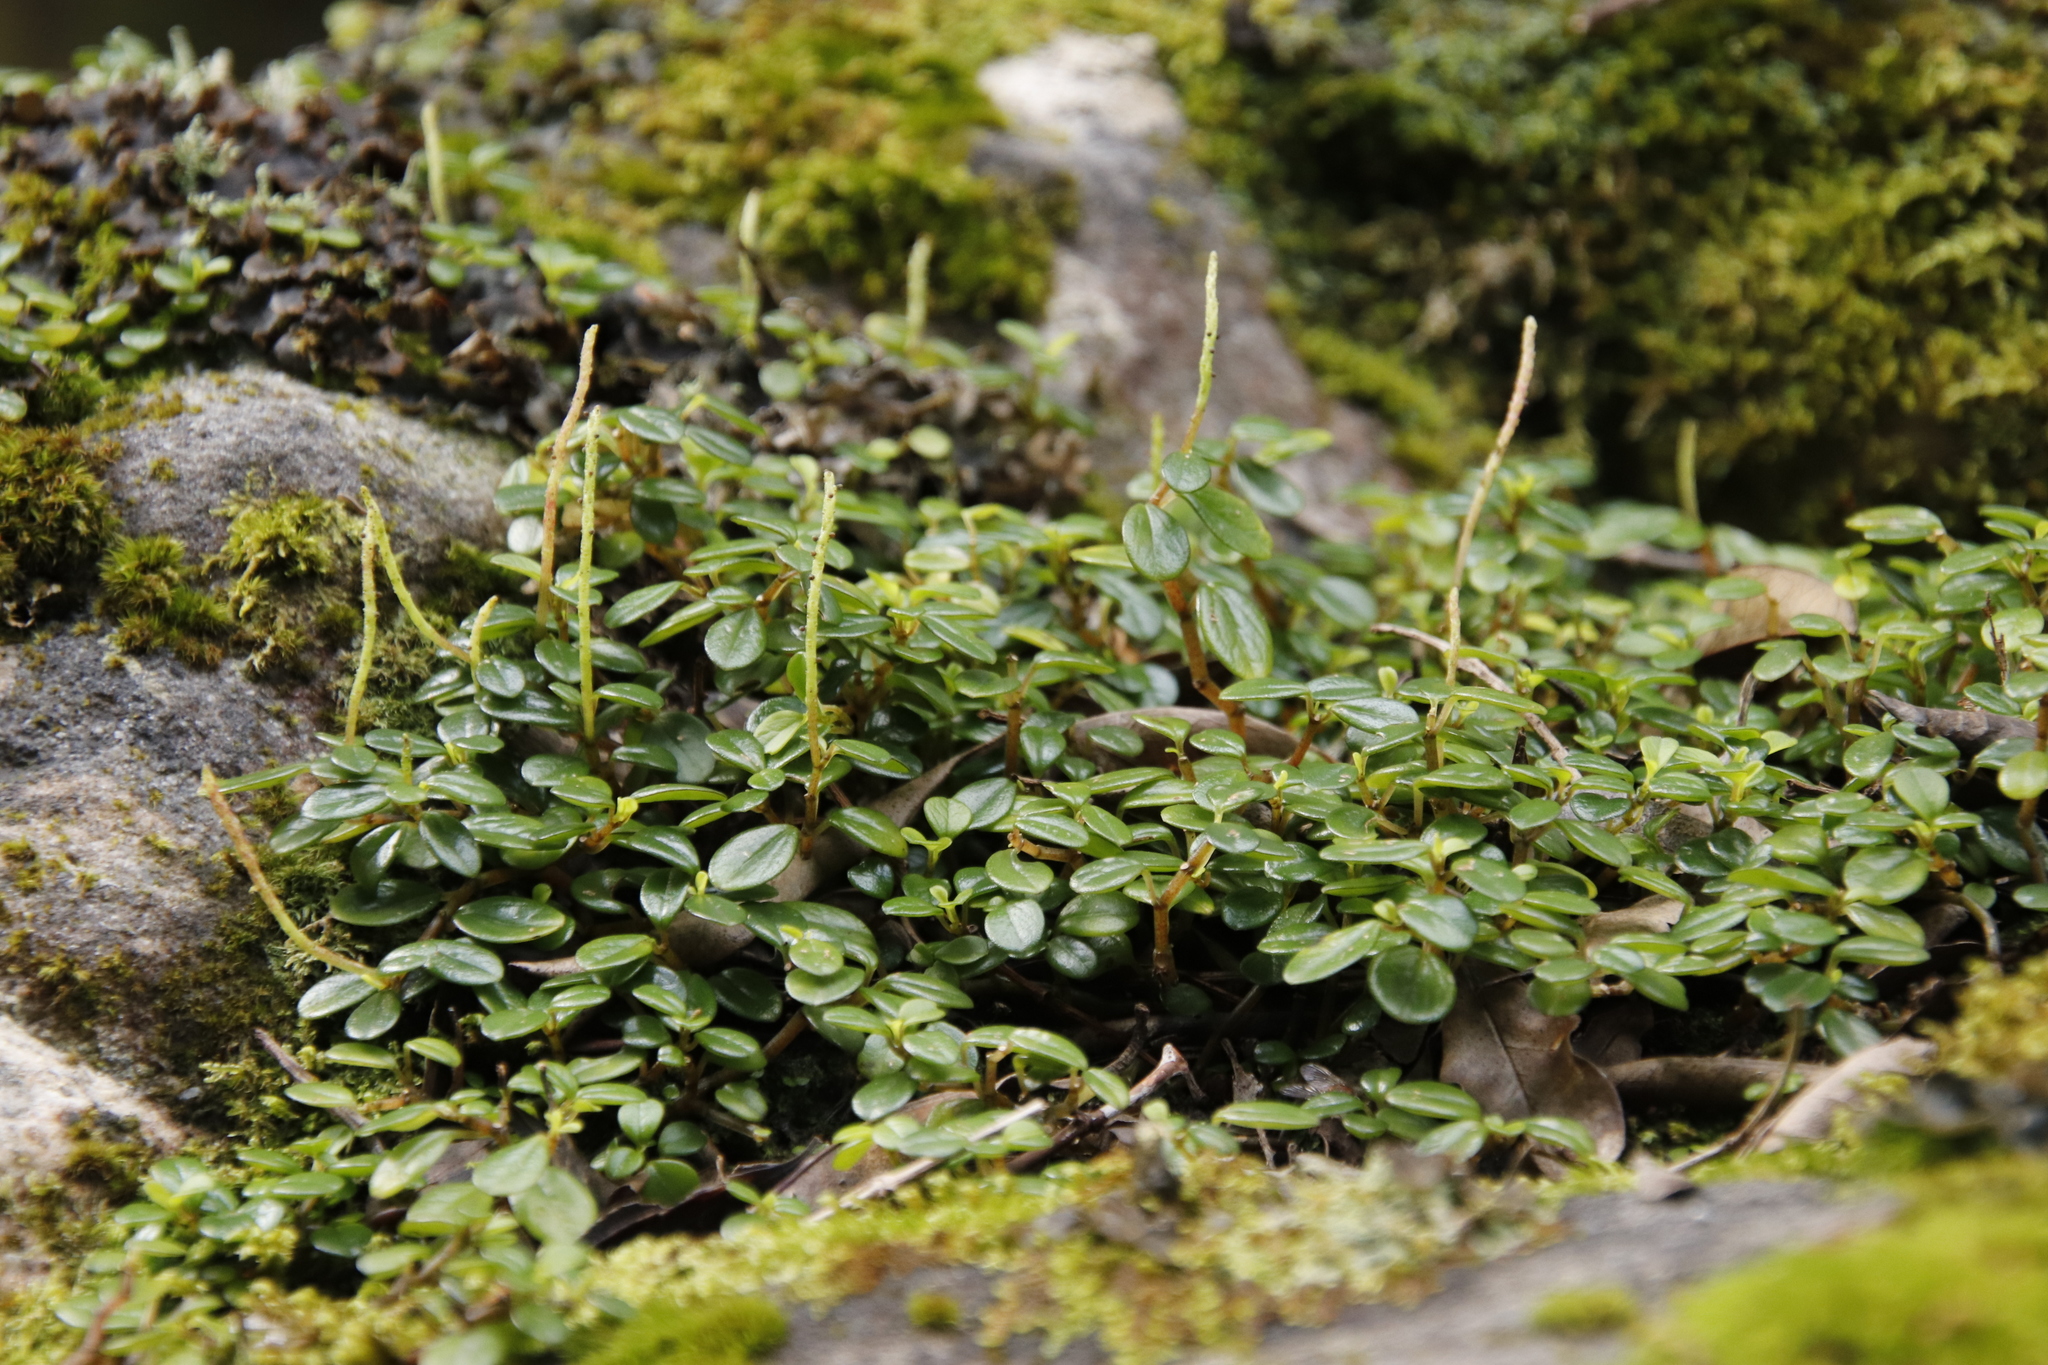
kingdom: Plantae
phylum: Tracheophyta
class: Magnoliopsida
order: Piperales
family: Piperaceae
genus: Peperomia
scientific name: Peperomia retusa
